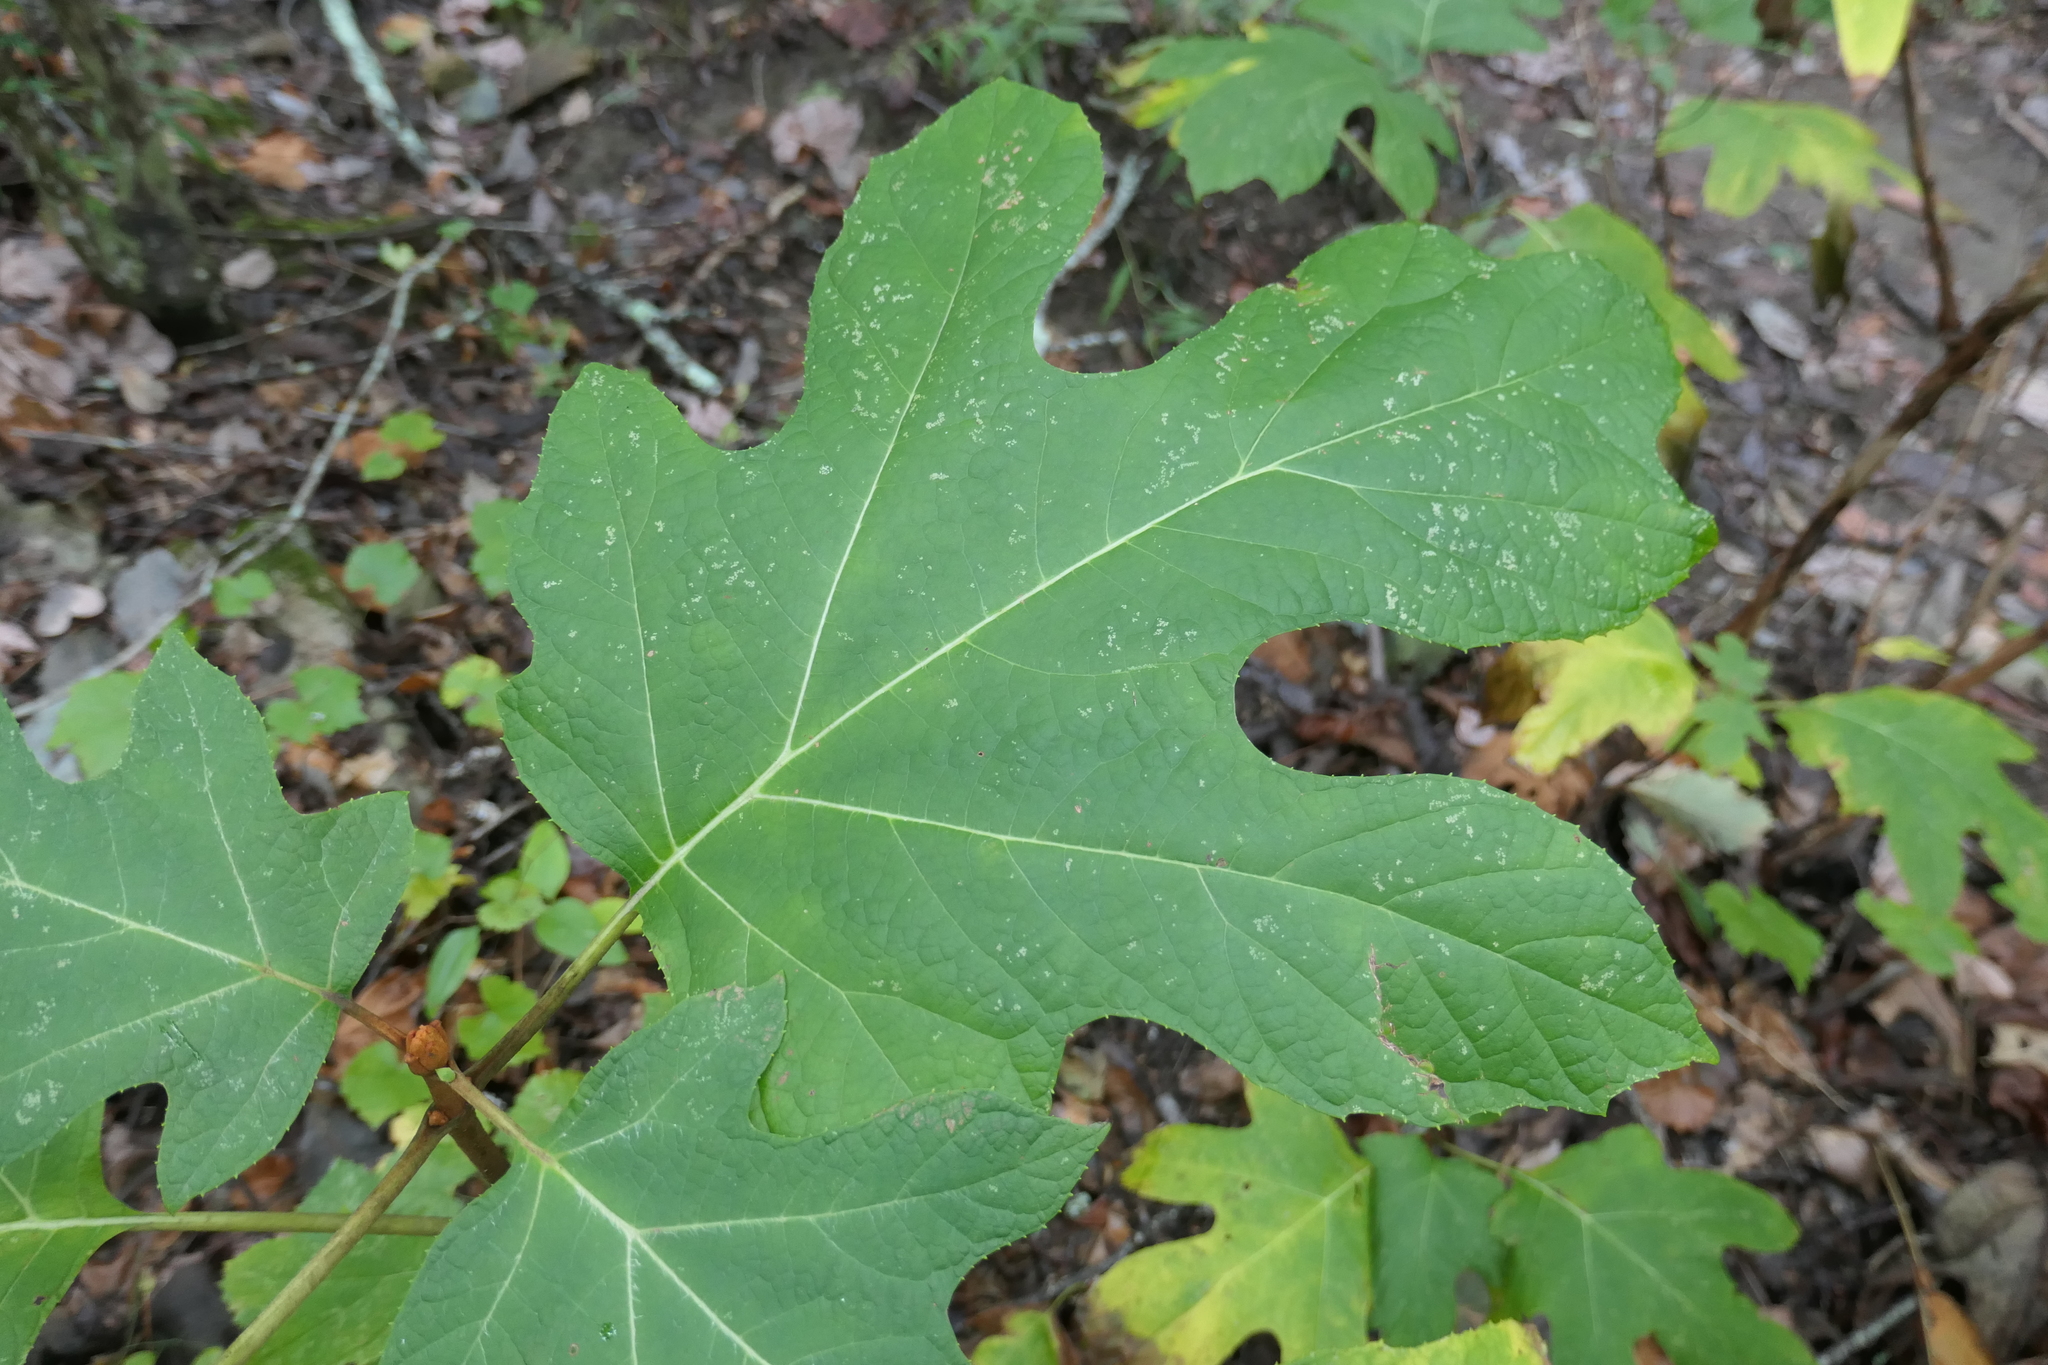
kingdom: Plantae
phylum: Tracheophyta
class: Magnoliopsida
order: Cornales
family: Hydrangeaceae
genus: Hydrangea
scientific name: Hydrangea quercifolia
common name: Oak-leaf hydrangea
